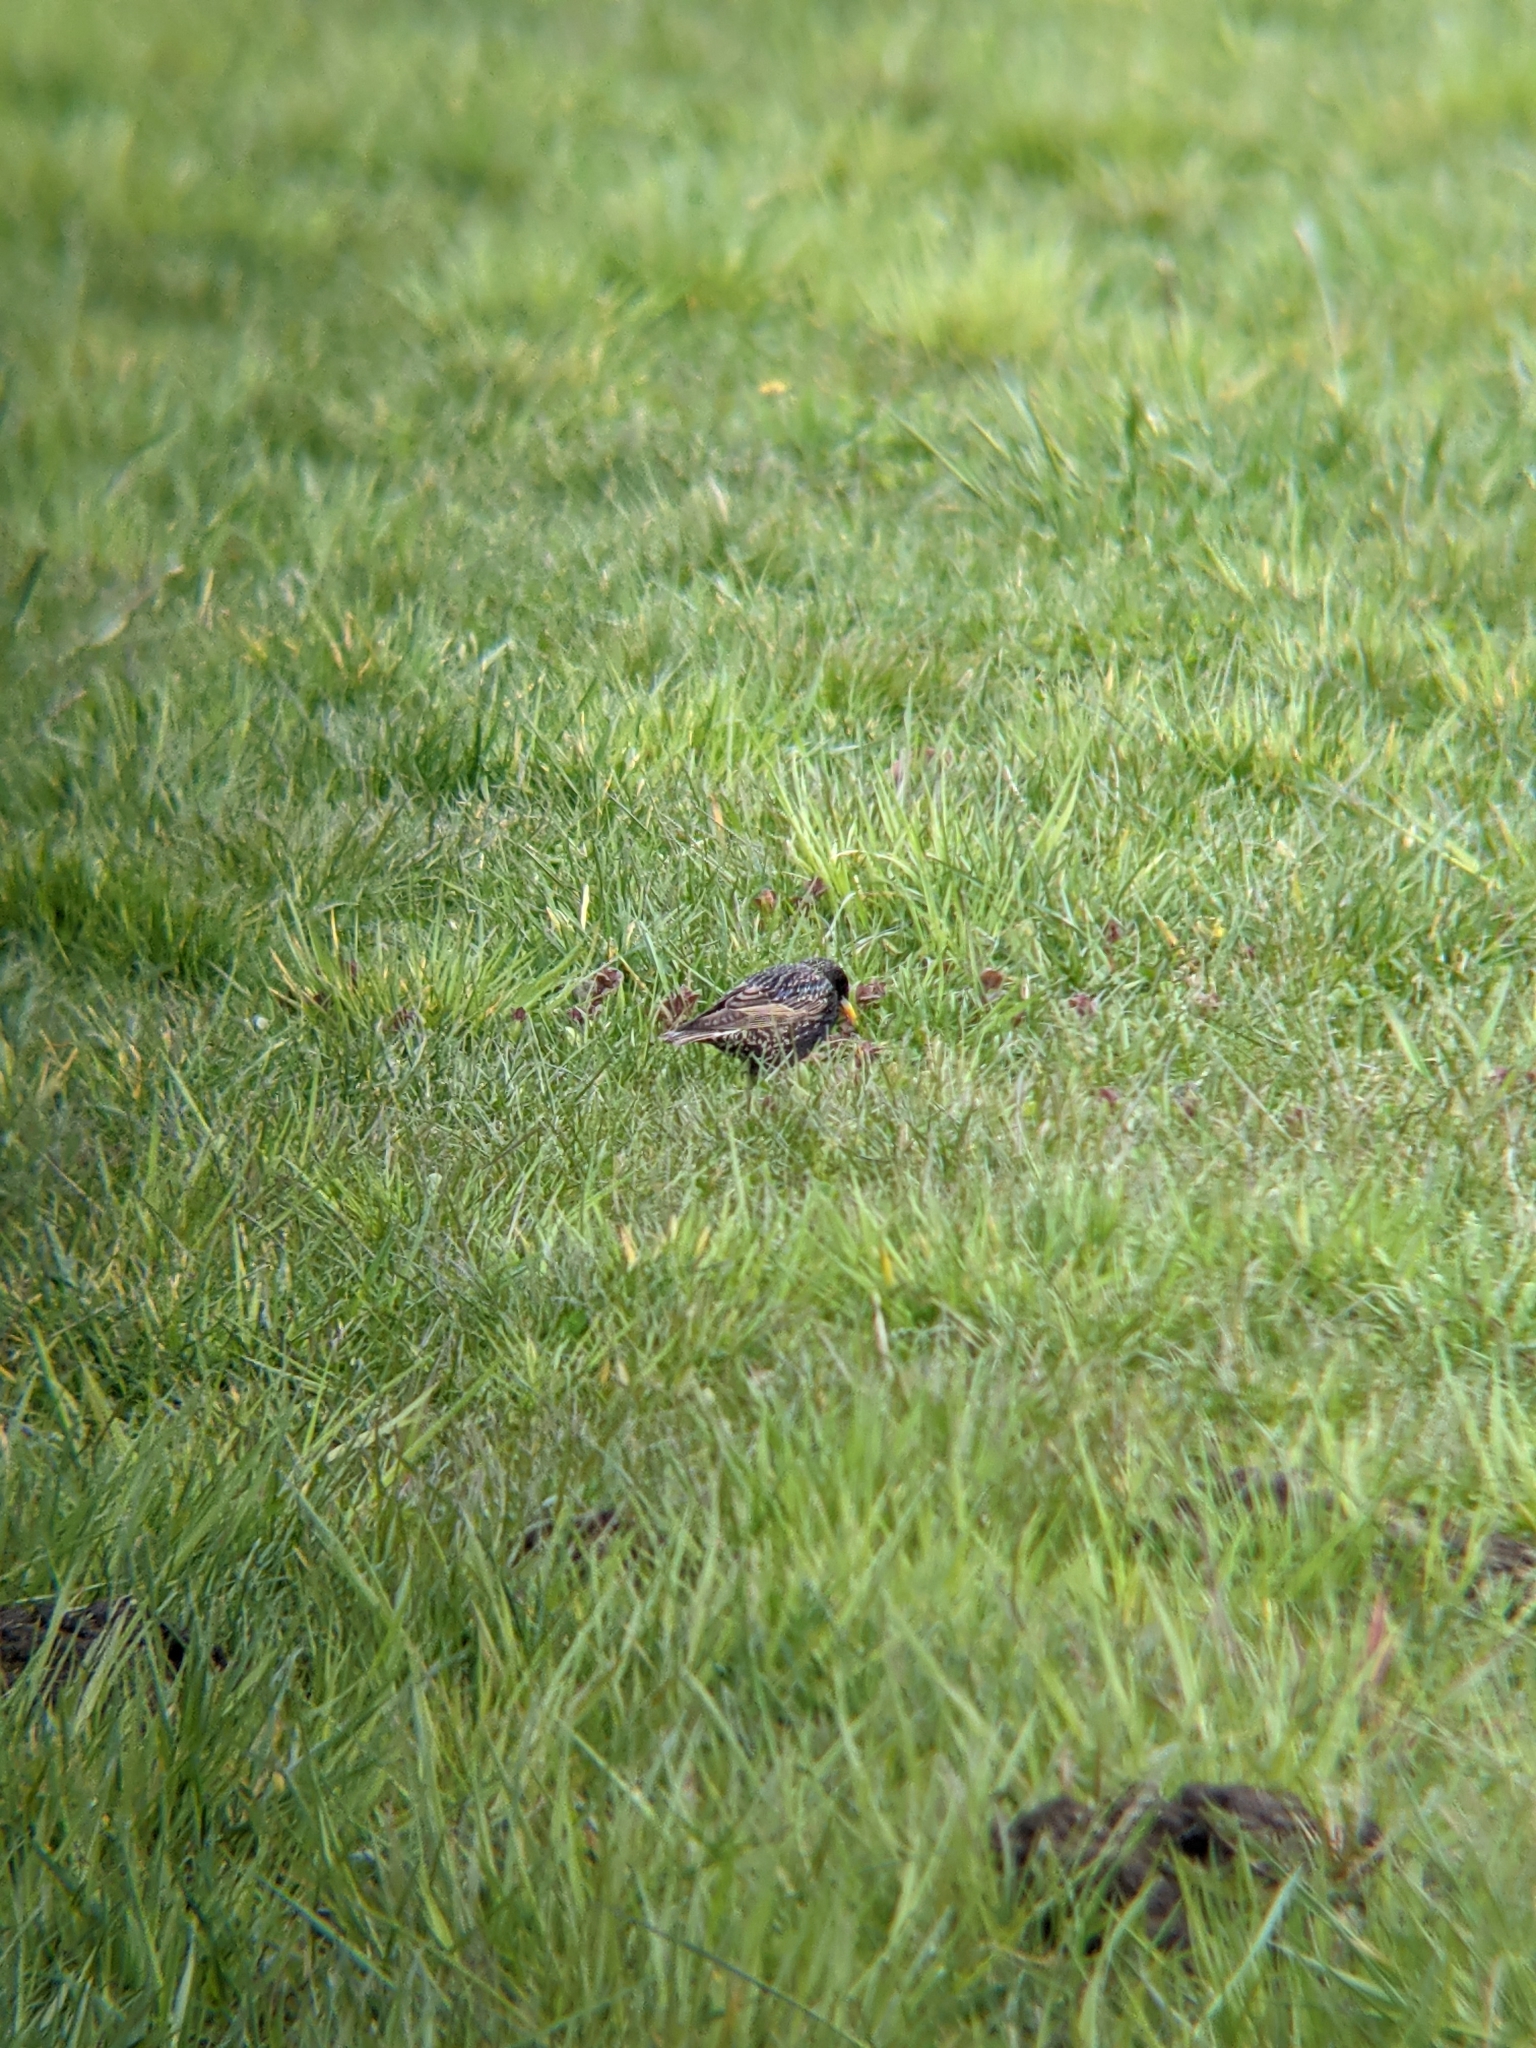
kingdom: Animalia
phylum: Chordata
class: Aves
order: Passeriformes
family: Sturnidae
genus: Sturnus
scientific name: Sturnus vulgaris
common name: Common starling
